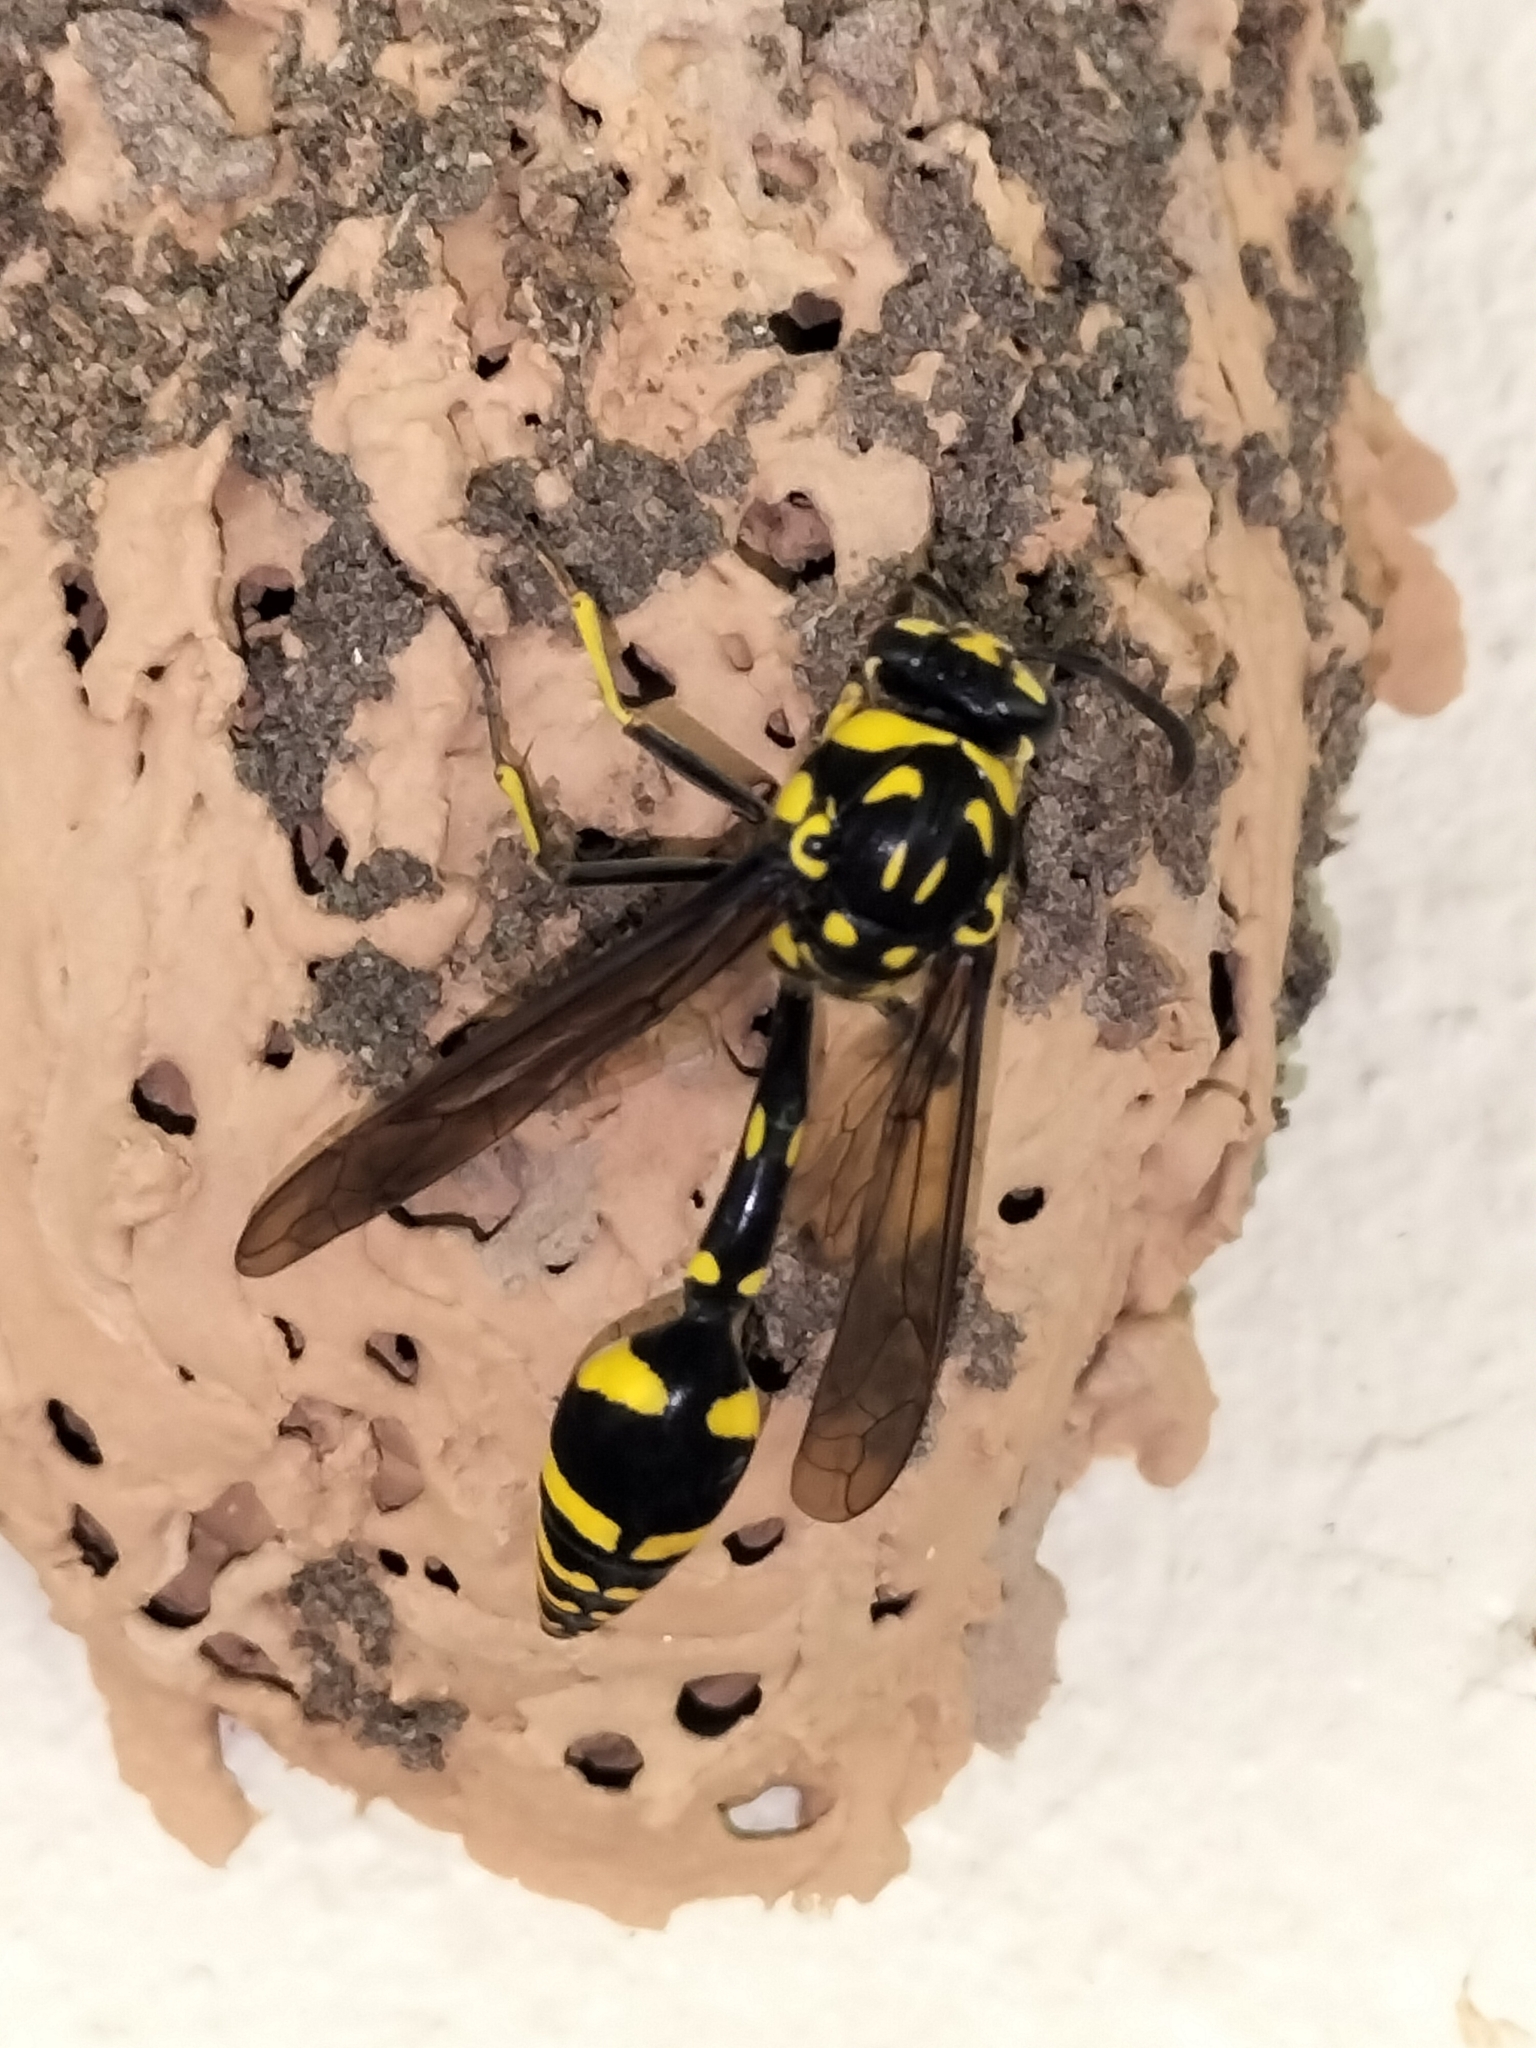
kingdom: Animalia
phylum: Arthropoda
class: Insecta
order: Hymenoptera
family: Eumenidae
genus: Phimenes
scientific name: Phimenes arcuatus
